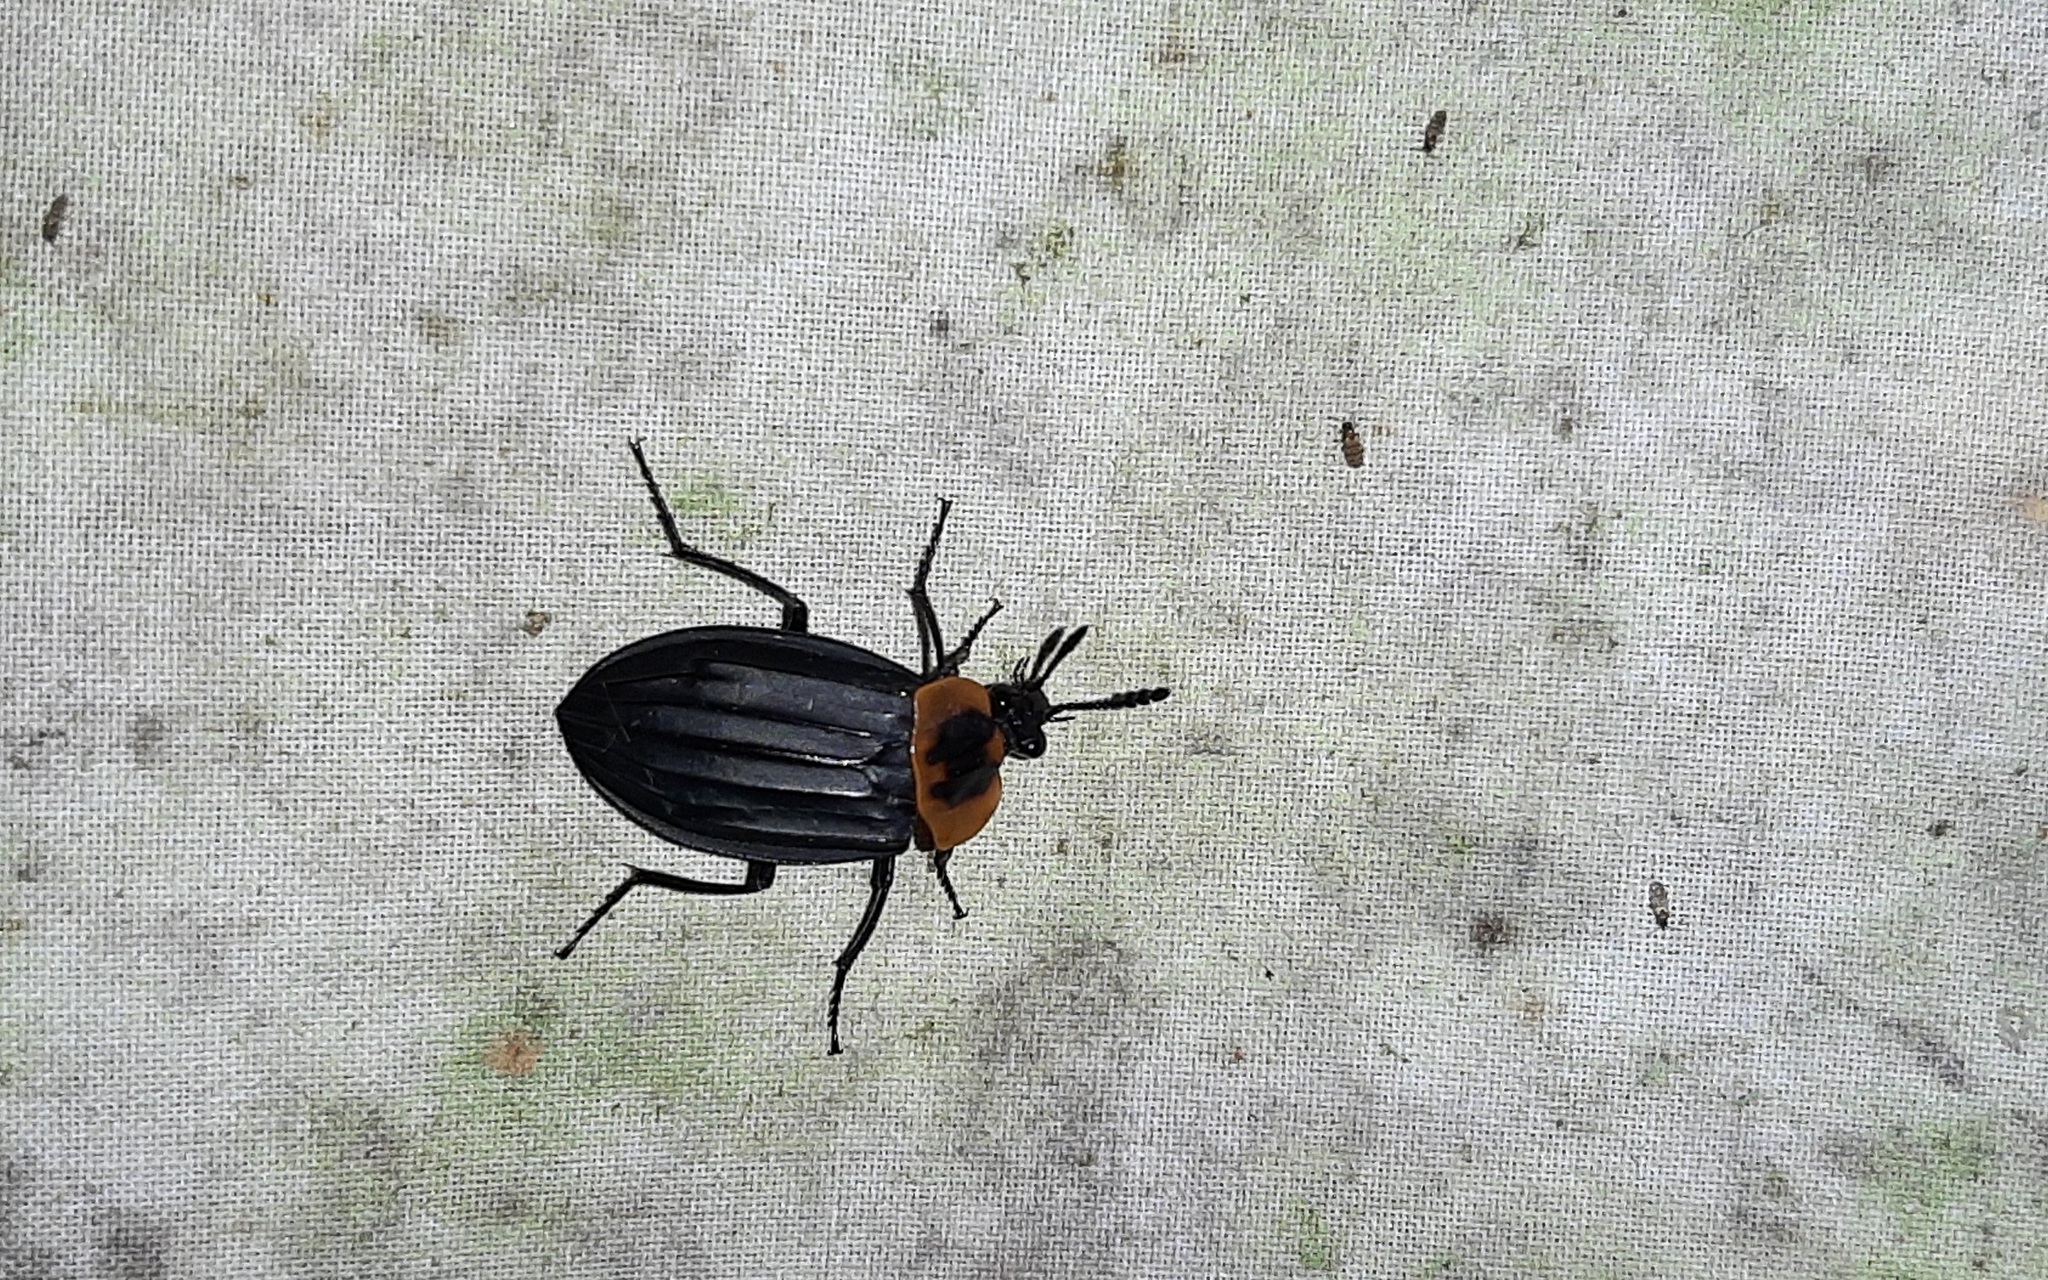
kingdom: Animalia
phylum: Arthropoda
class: Insecta
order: Coleoptera
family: Staphylinidae
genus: Oxelytrum
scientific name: Oxelytrum discicolle
